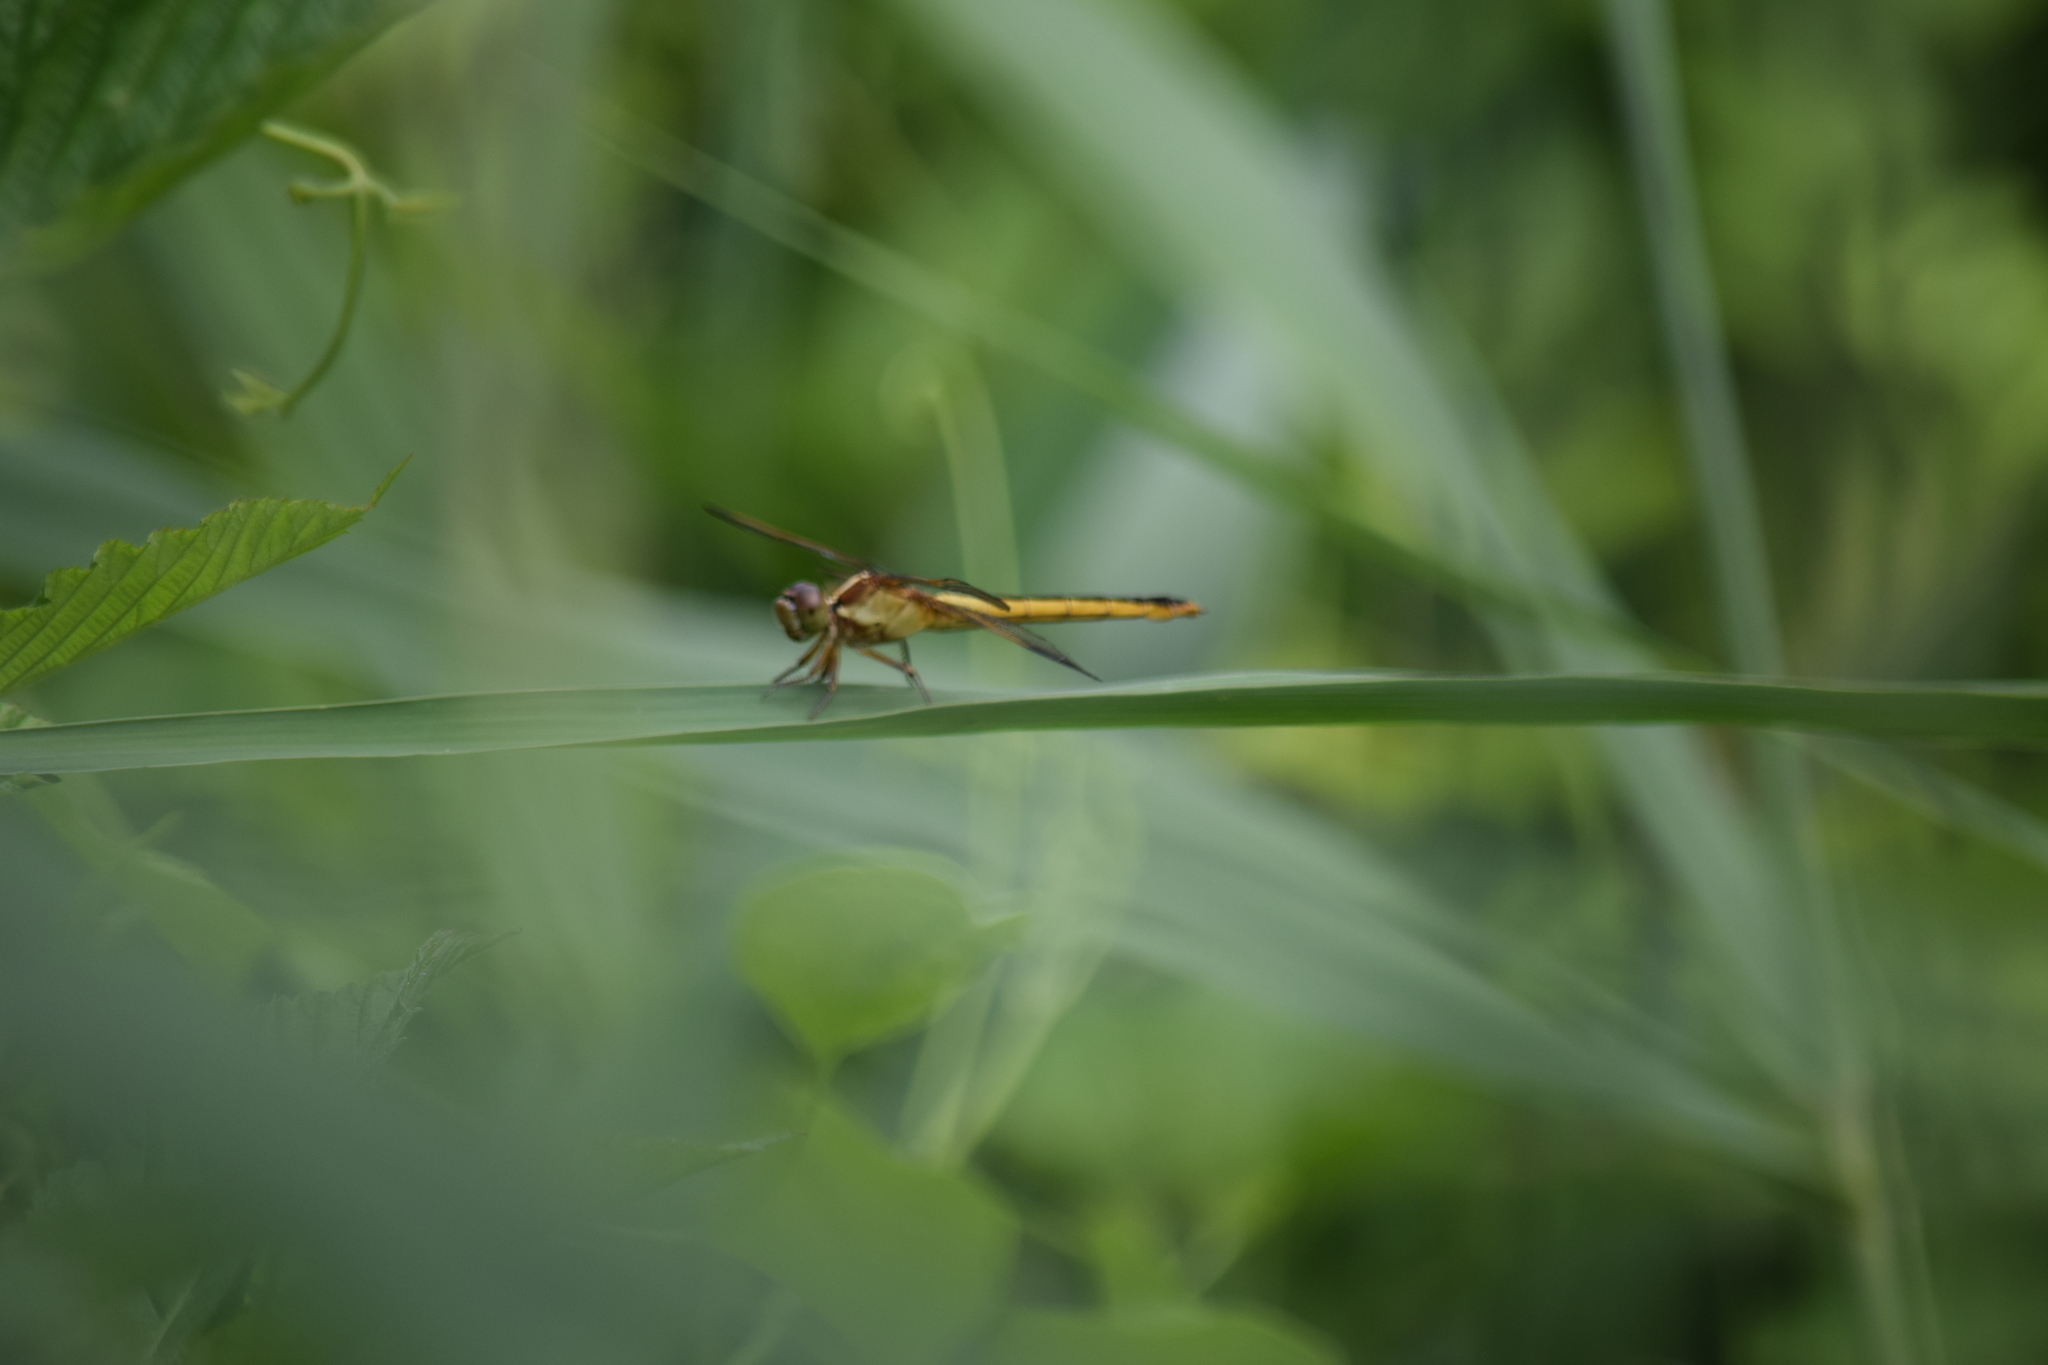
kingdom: Animalia
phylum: Arthropoda
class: Insecta
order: Odonata
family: Libellulidae
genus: Libellula
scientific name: Libellula needhami
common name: Needham's skimmer
